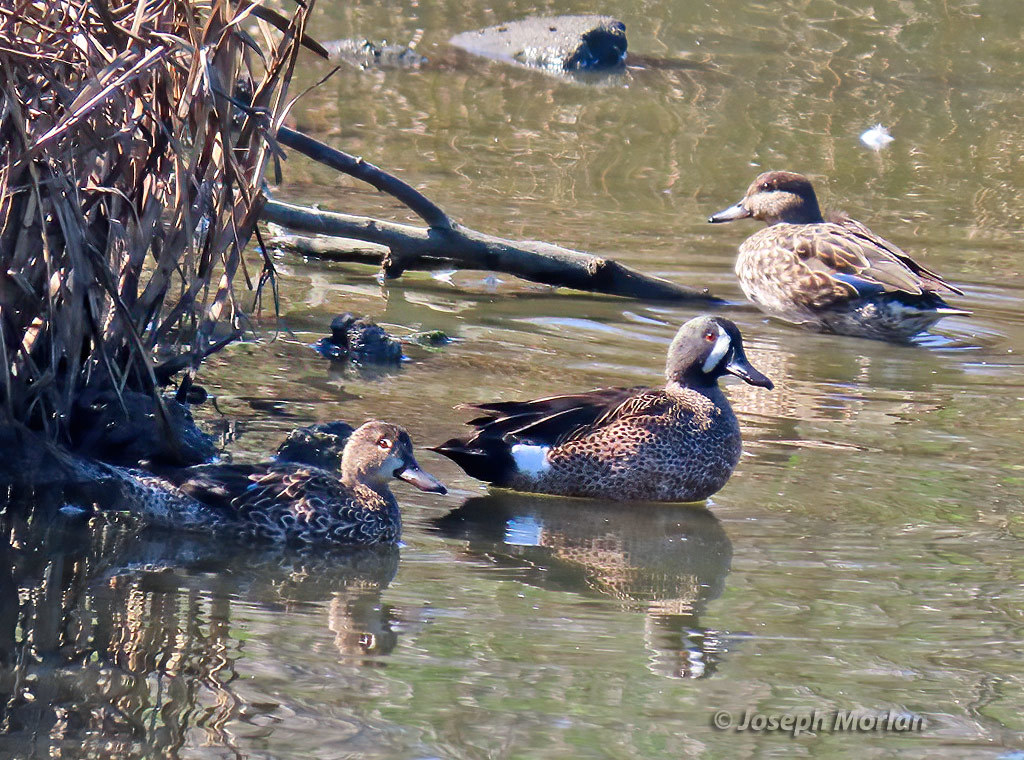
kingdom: Animalia
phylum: Chordata
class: Aves
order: Anseriformes
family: Anatidae
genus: Spatula
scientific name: Spatula discors
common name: Blue-winged teal
